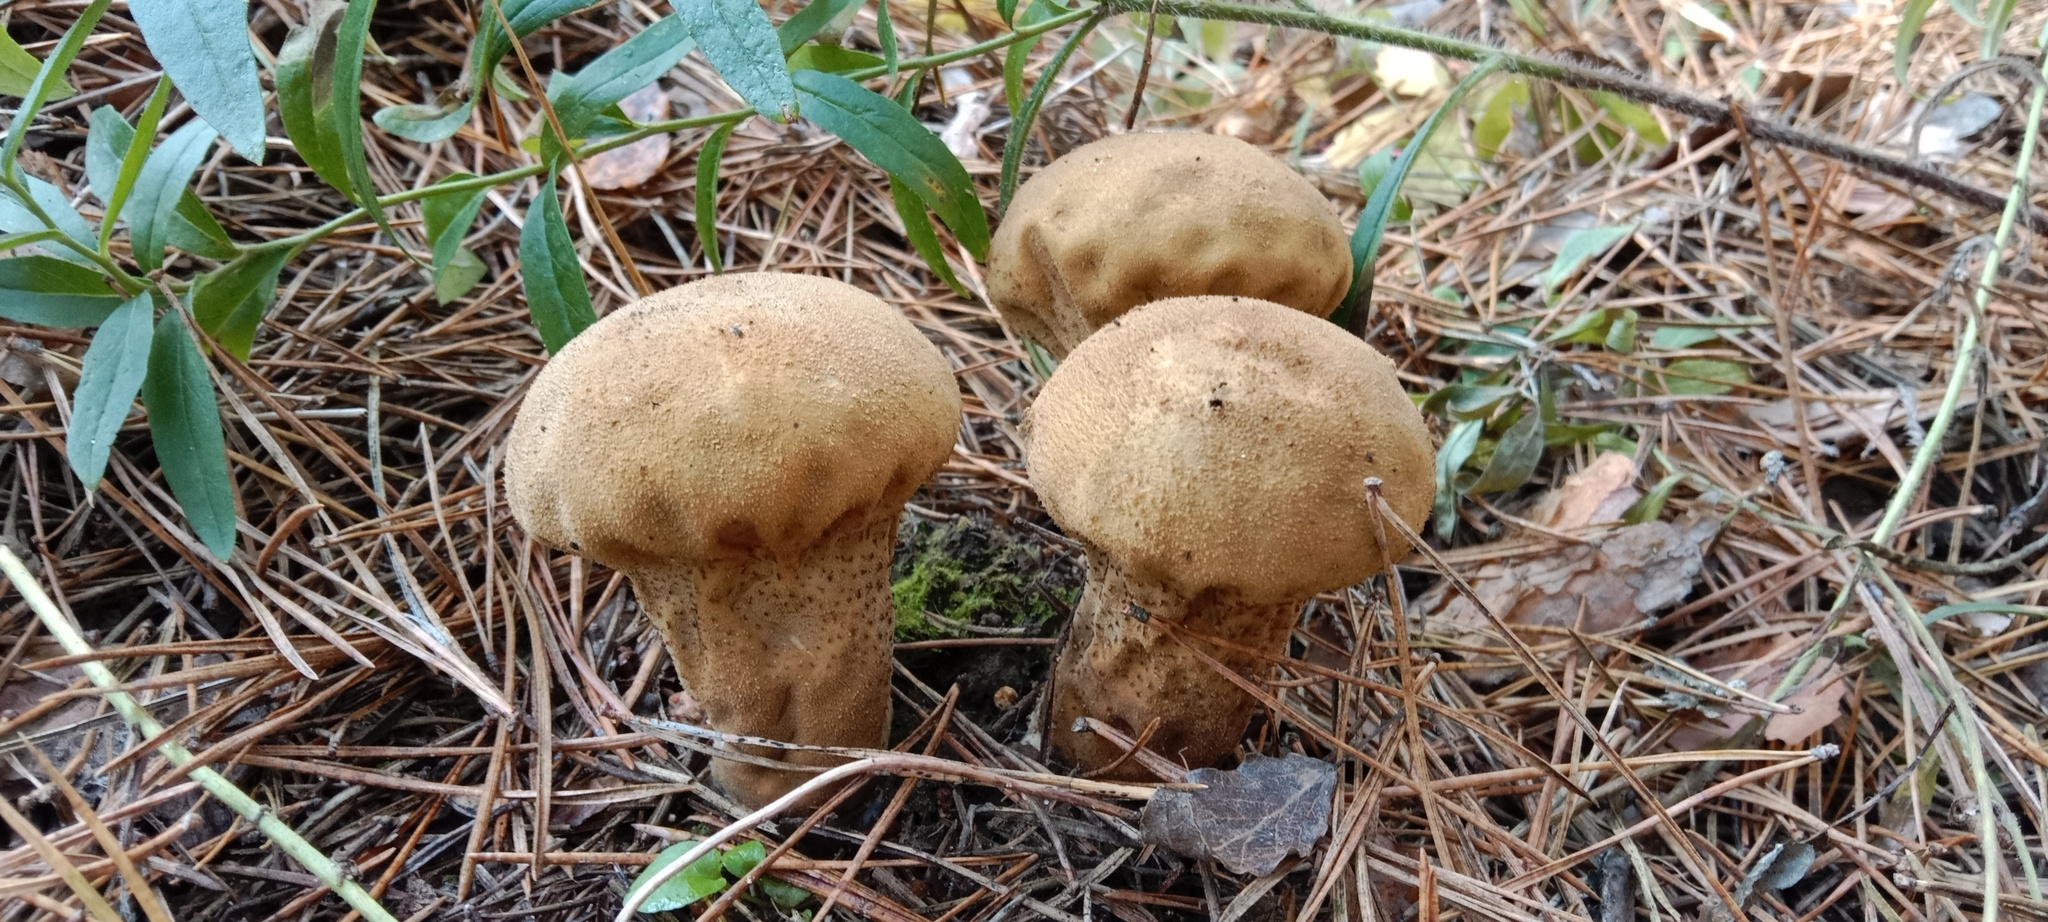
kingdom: Fungi
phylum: Basidiomycota
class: Agaricomycetes
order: Agaricales
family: Lycoperdaceae
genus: Lycoperdon
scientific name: Lycoperdon excipuliforme
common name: Pestle puffball
